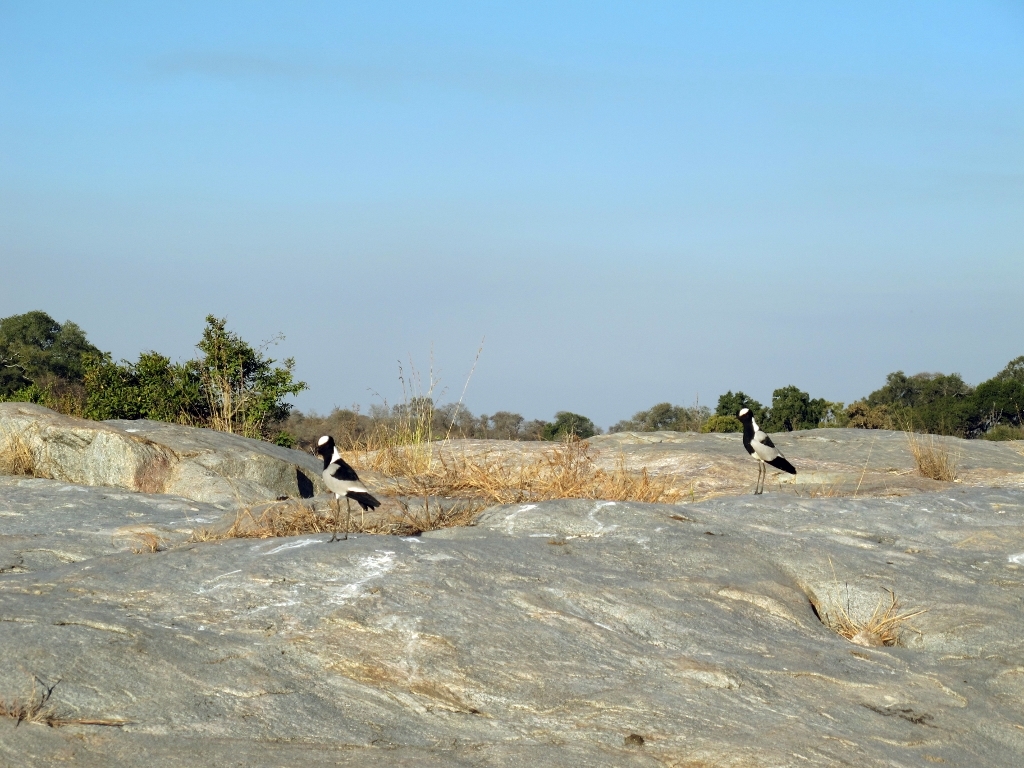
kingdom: Animalia
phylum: Chordata
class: Aves
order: Charadriiformes
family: Charadriidae
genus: Vanellus
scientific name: Vanellus armatus
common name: Blacksmith lapwing
